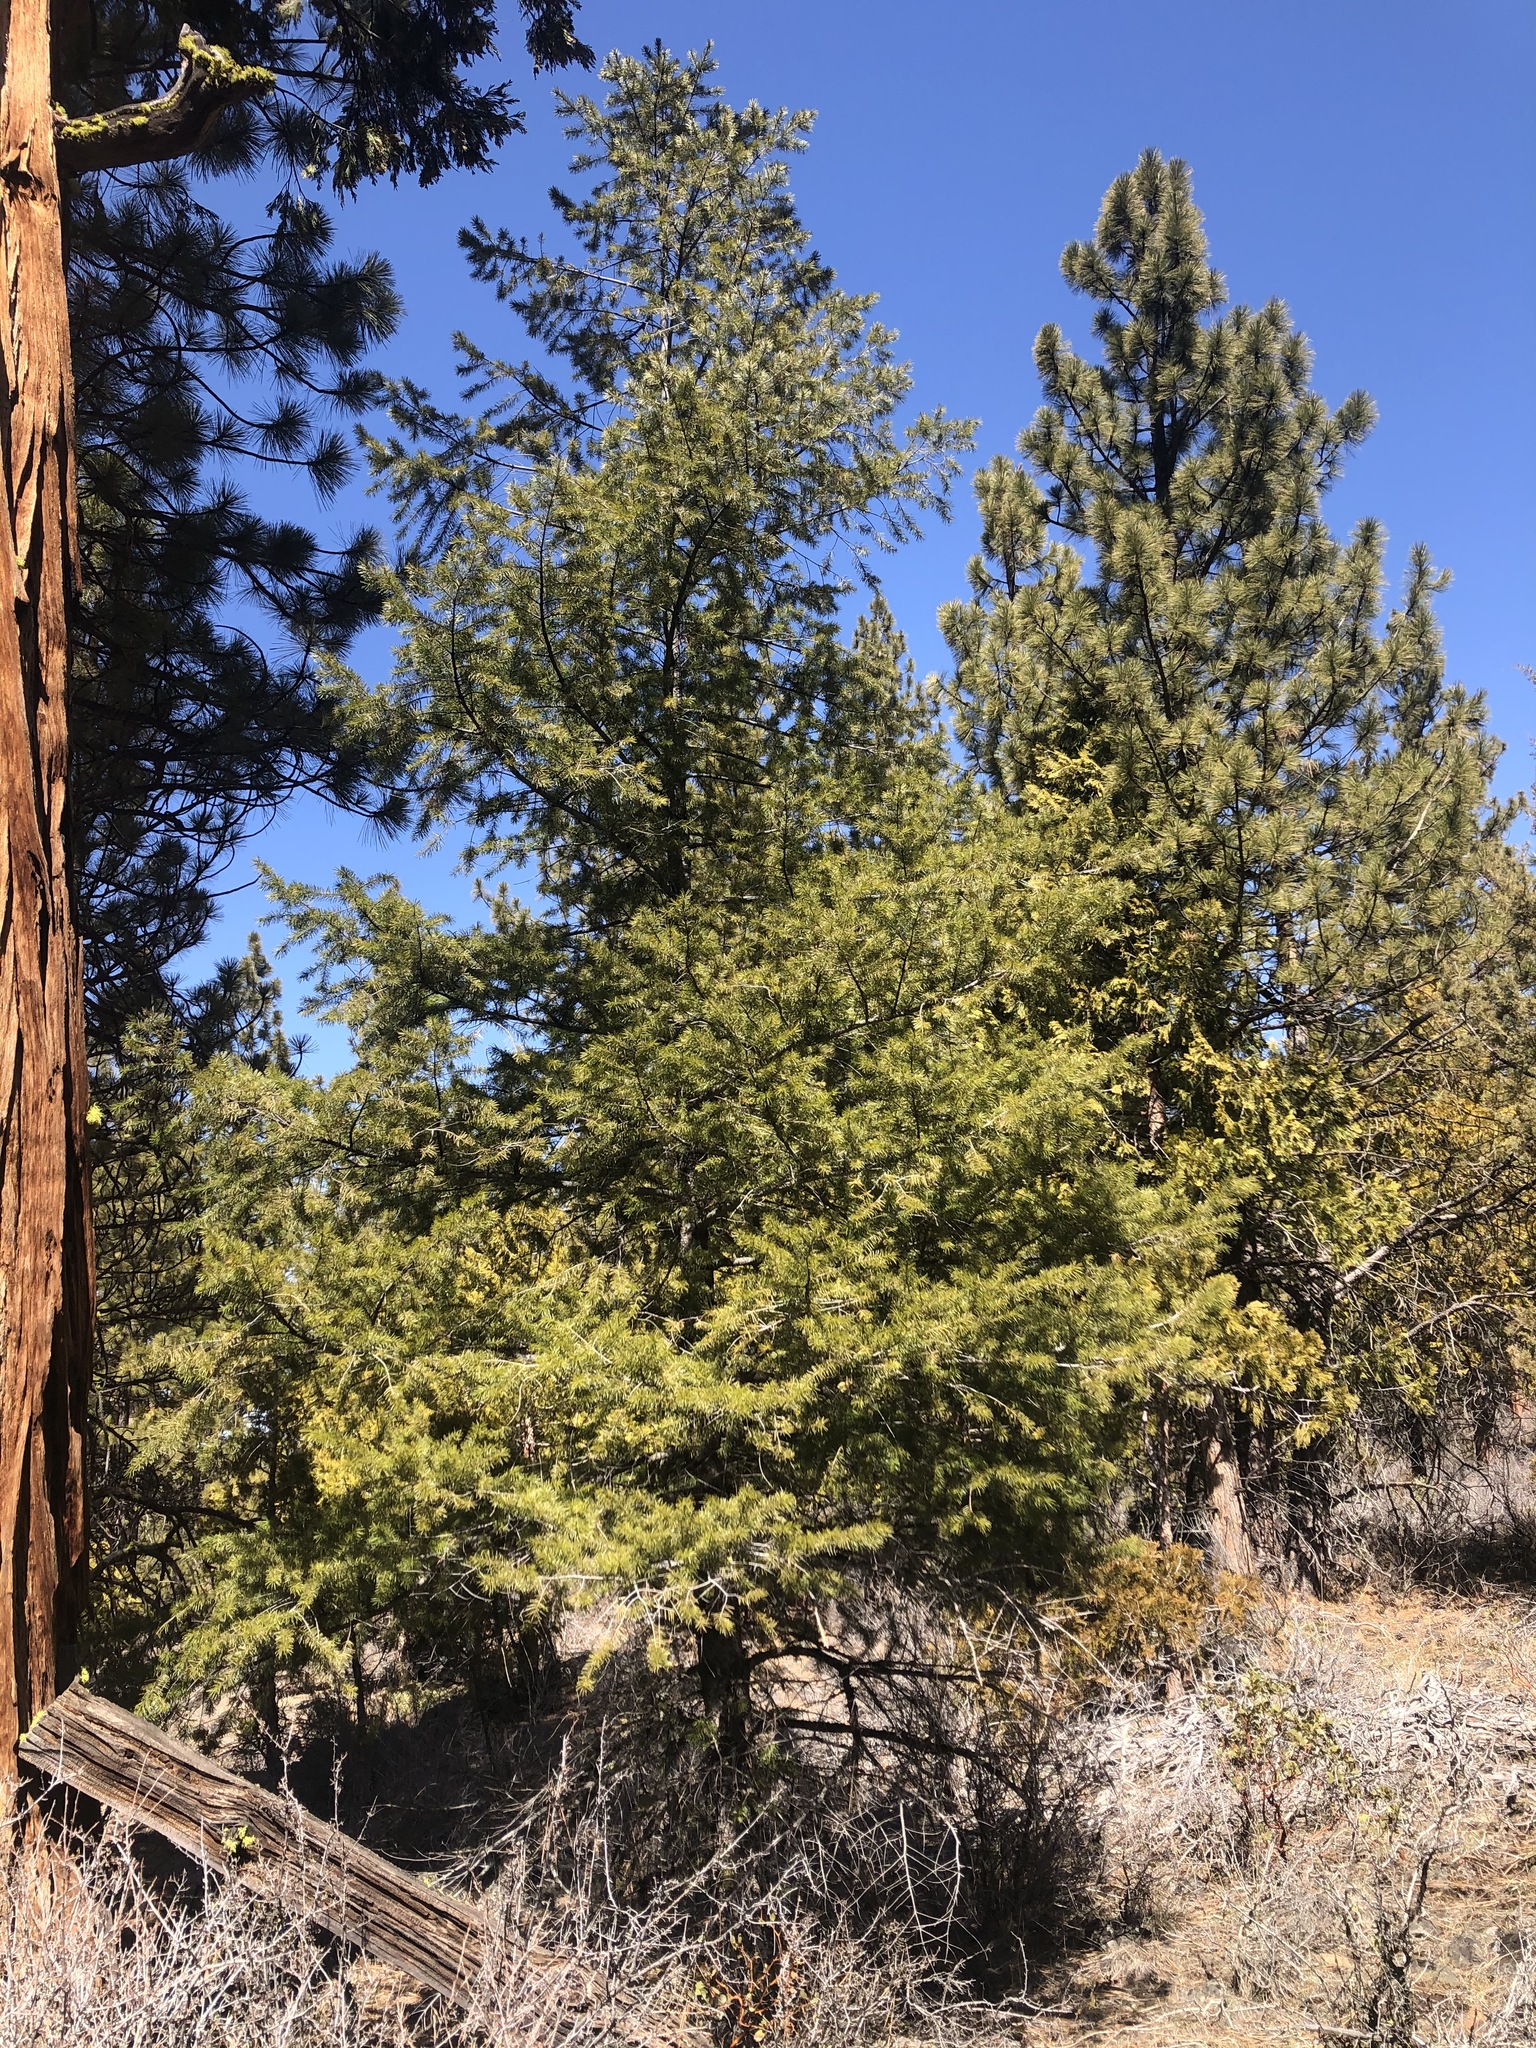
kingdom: Plantae
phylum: Tracheophyta
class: Pinopsida
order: Pinales
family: Pinaceae
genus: Pseudotsuga
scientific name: Pseudotsuga menziesii
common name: Douglas fir
